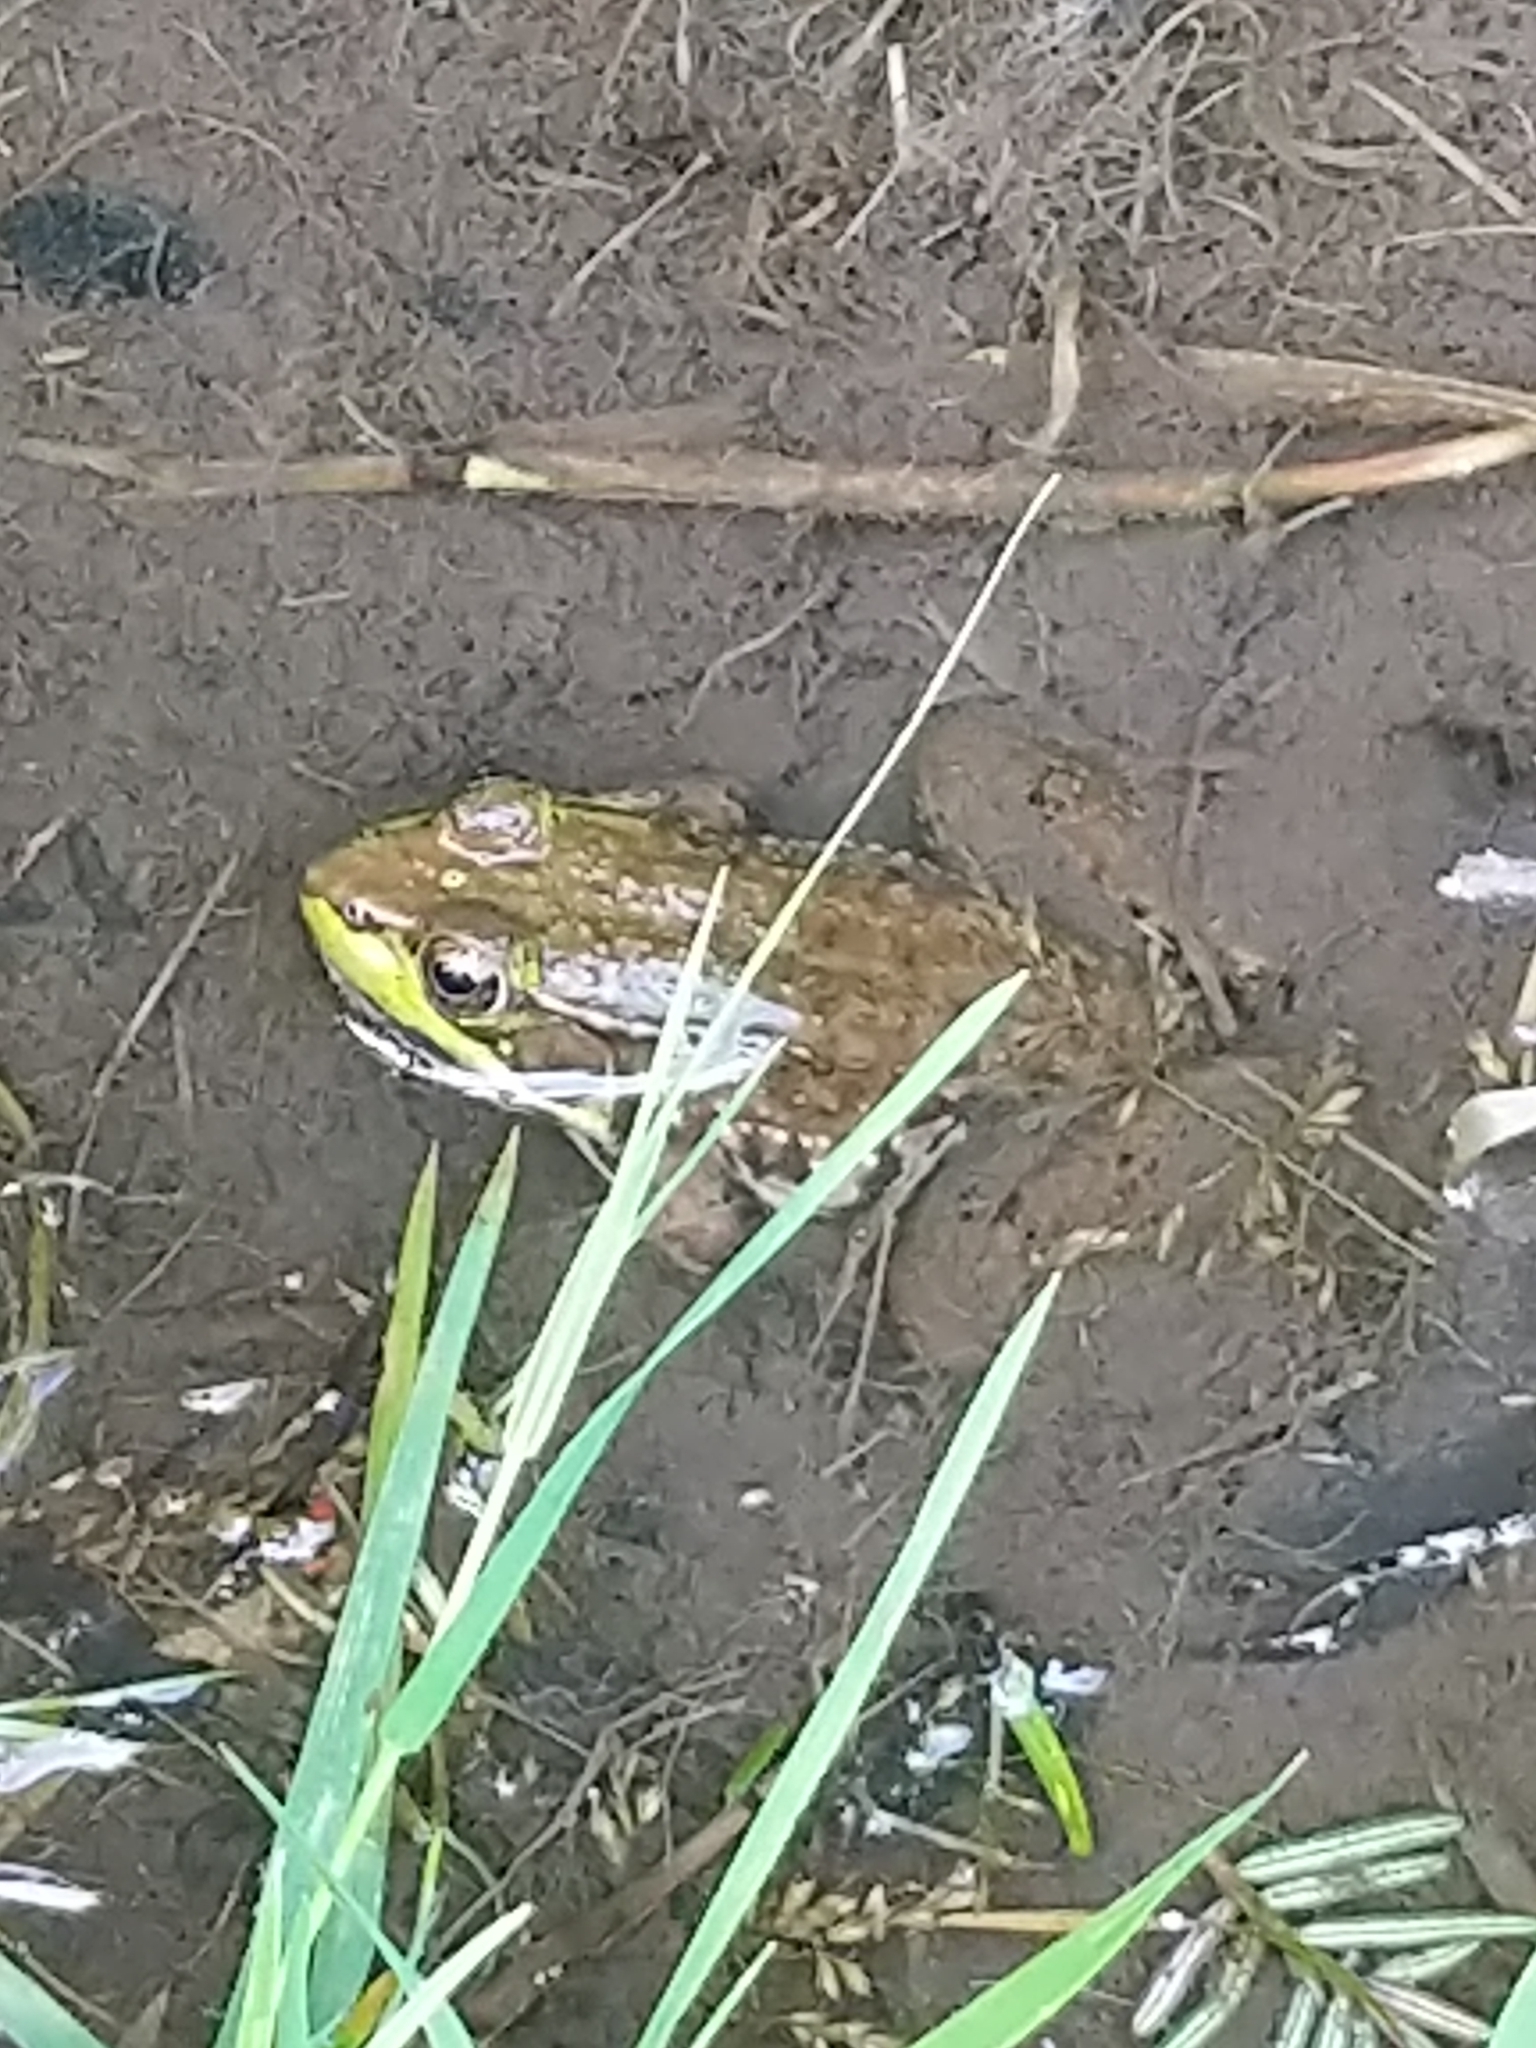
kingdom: Animalia
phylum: Chordata
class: Amphibia
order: Anura
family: Ranidae
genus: Lithobates
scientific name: Lithobates clamitans
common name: Green frog
